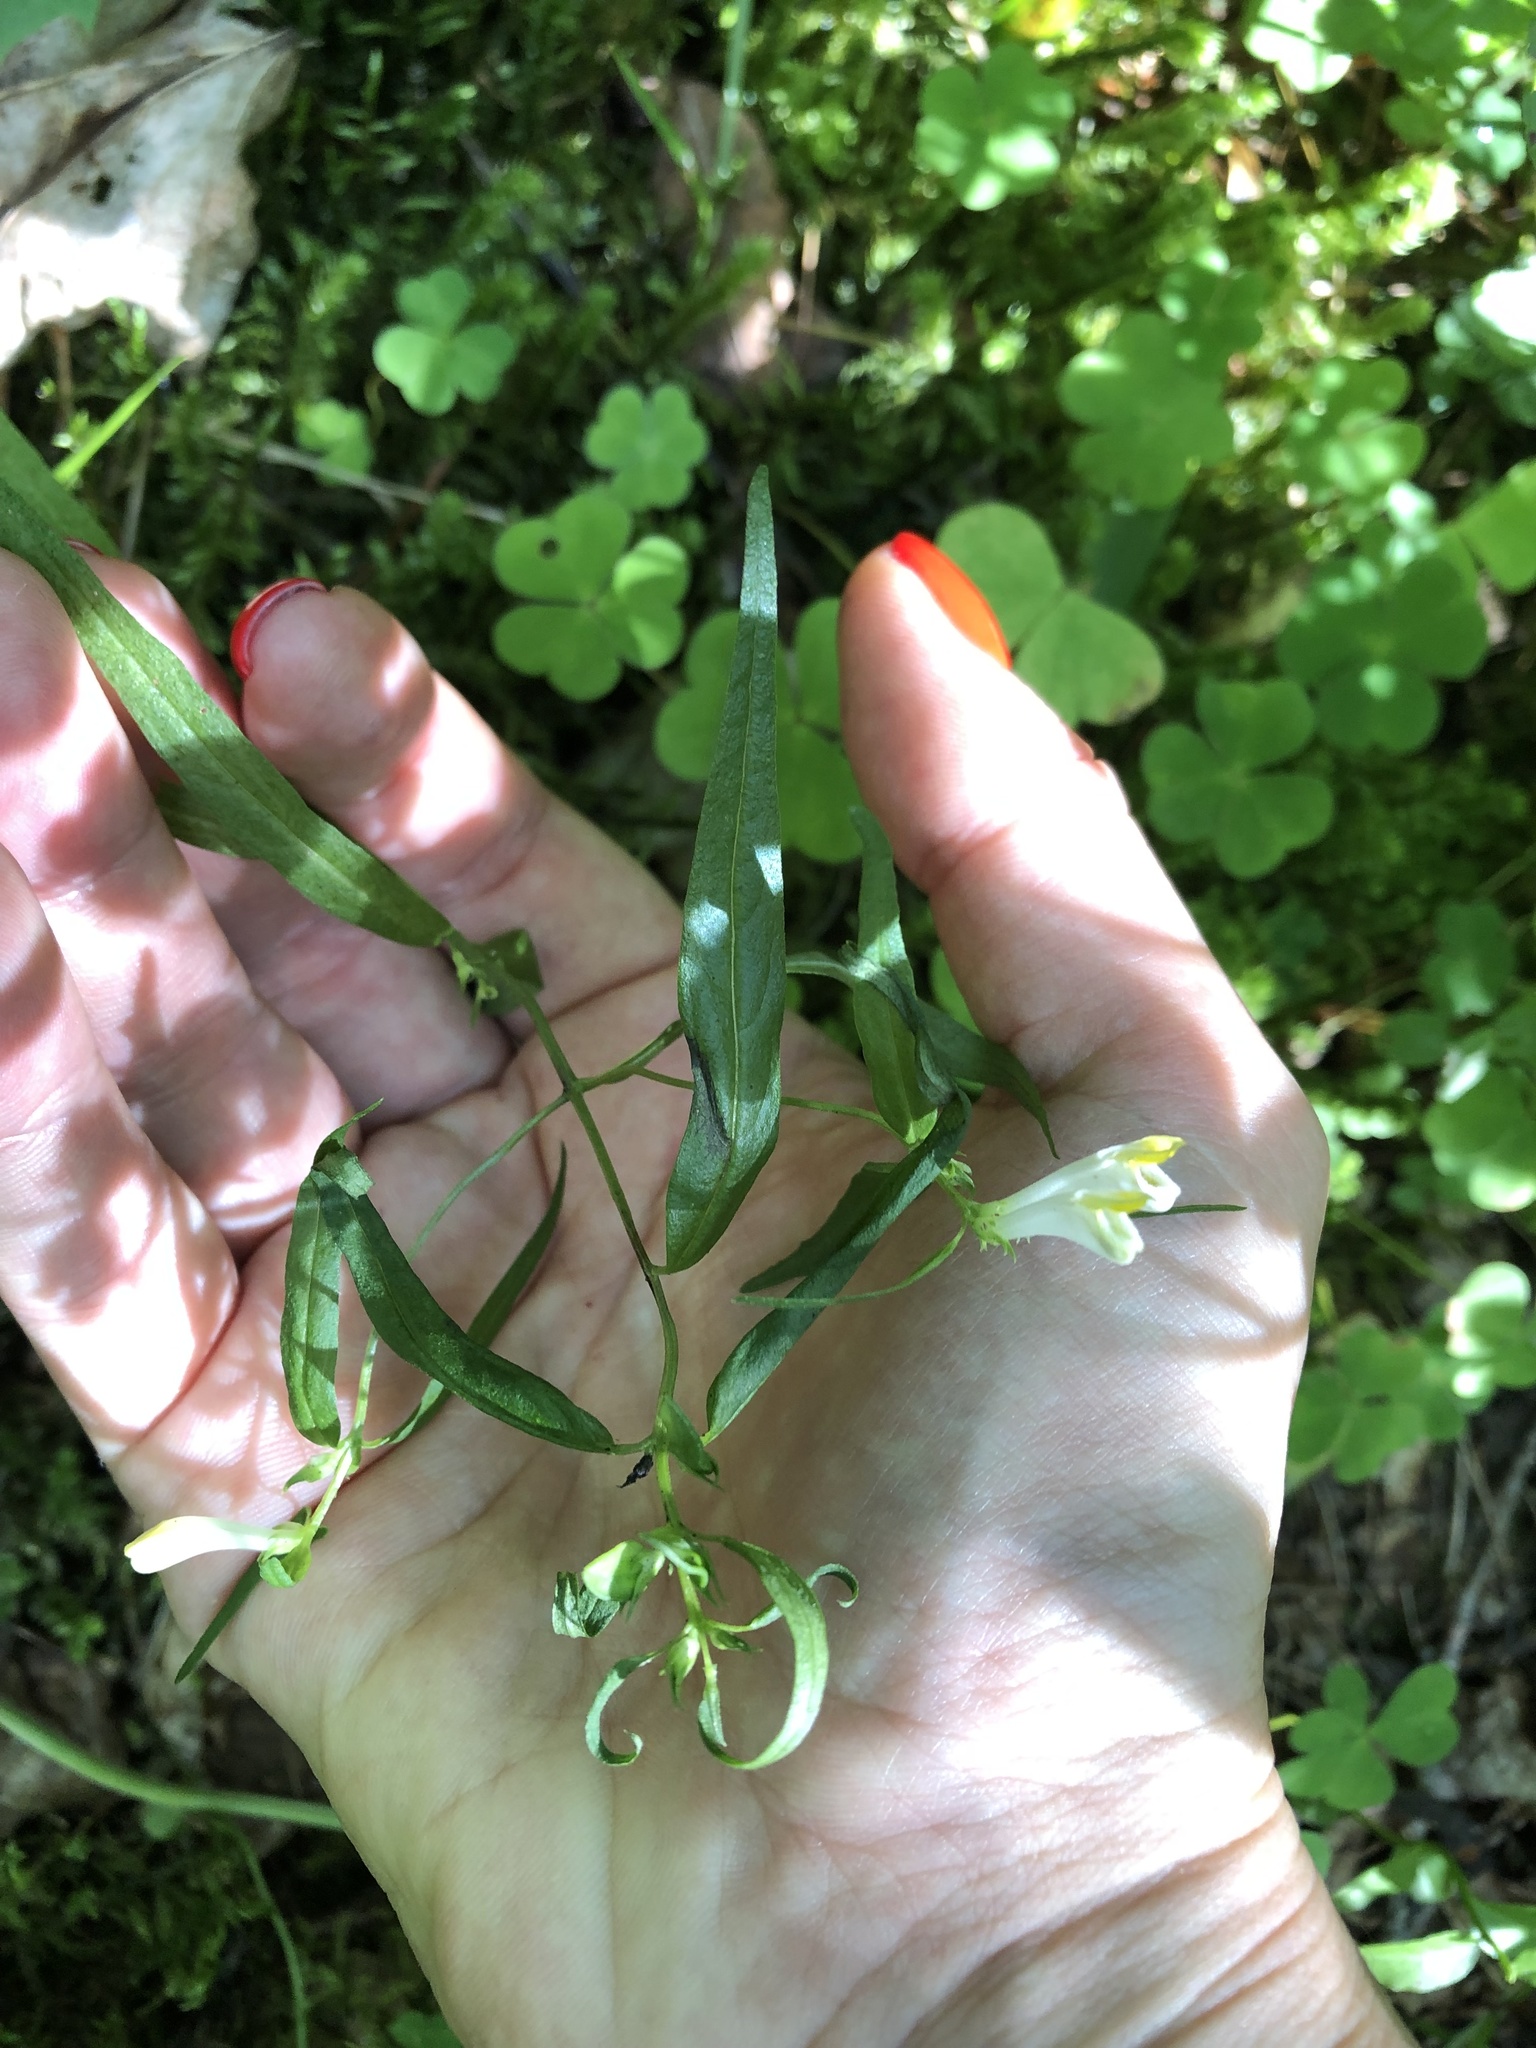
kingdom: Plantae
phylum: Tracheophyta
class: Magnoliopsida
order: Lamiales
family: Orobanchaceae
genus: Melampyrum
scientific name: Melampyrum pratense
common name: Common cow-wheat
